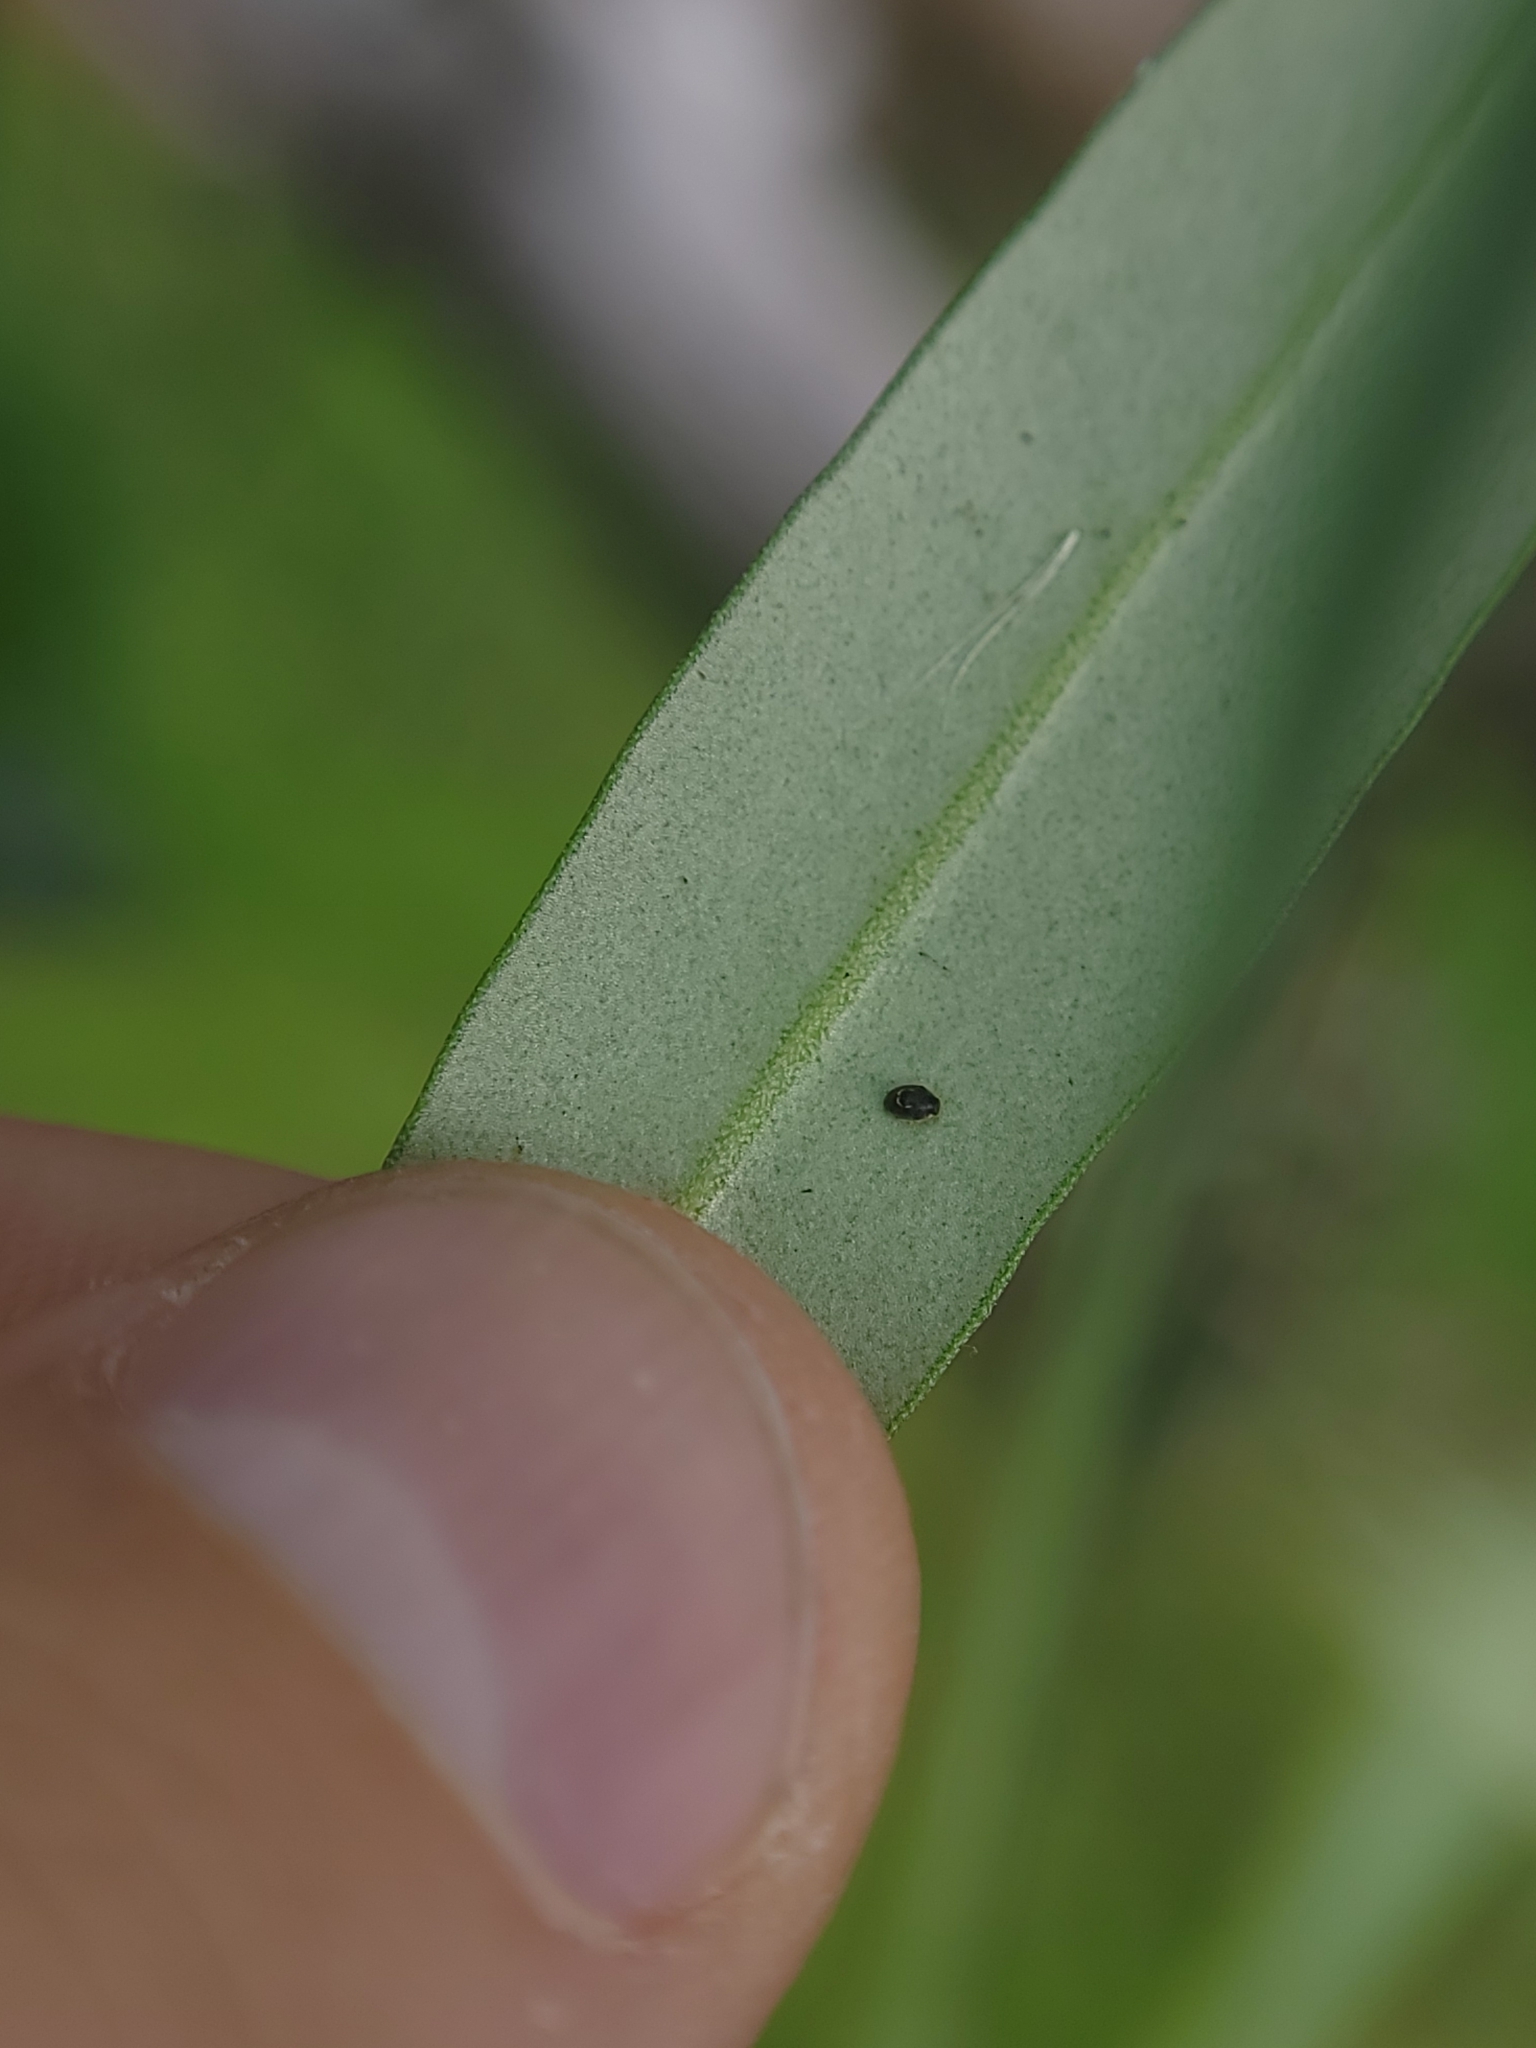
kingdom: Animalia
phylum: Arthropoda
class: Insecta
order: Coleoptera
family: Coccinellidae
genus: Clitostethus
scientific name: Clitostethus arcuatus
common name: Ladybird beetle
